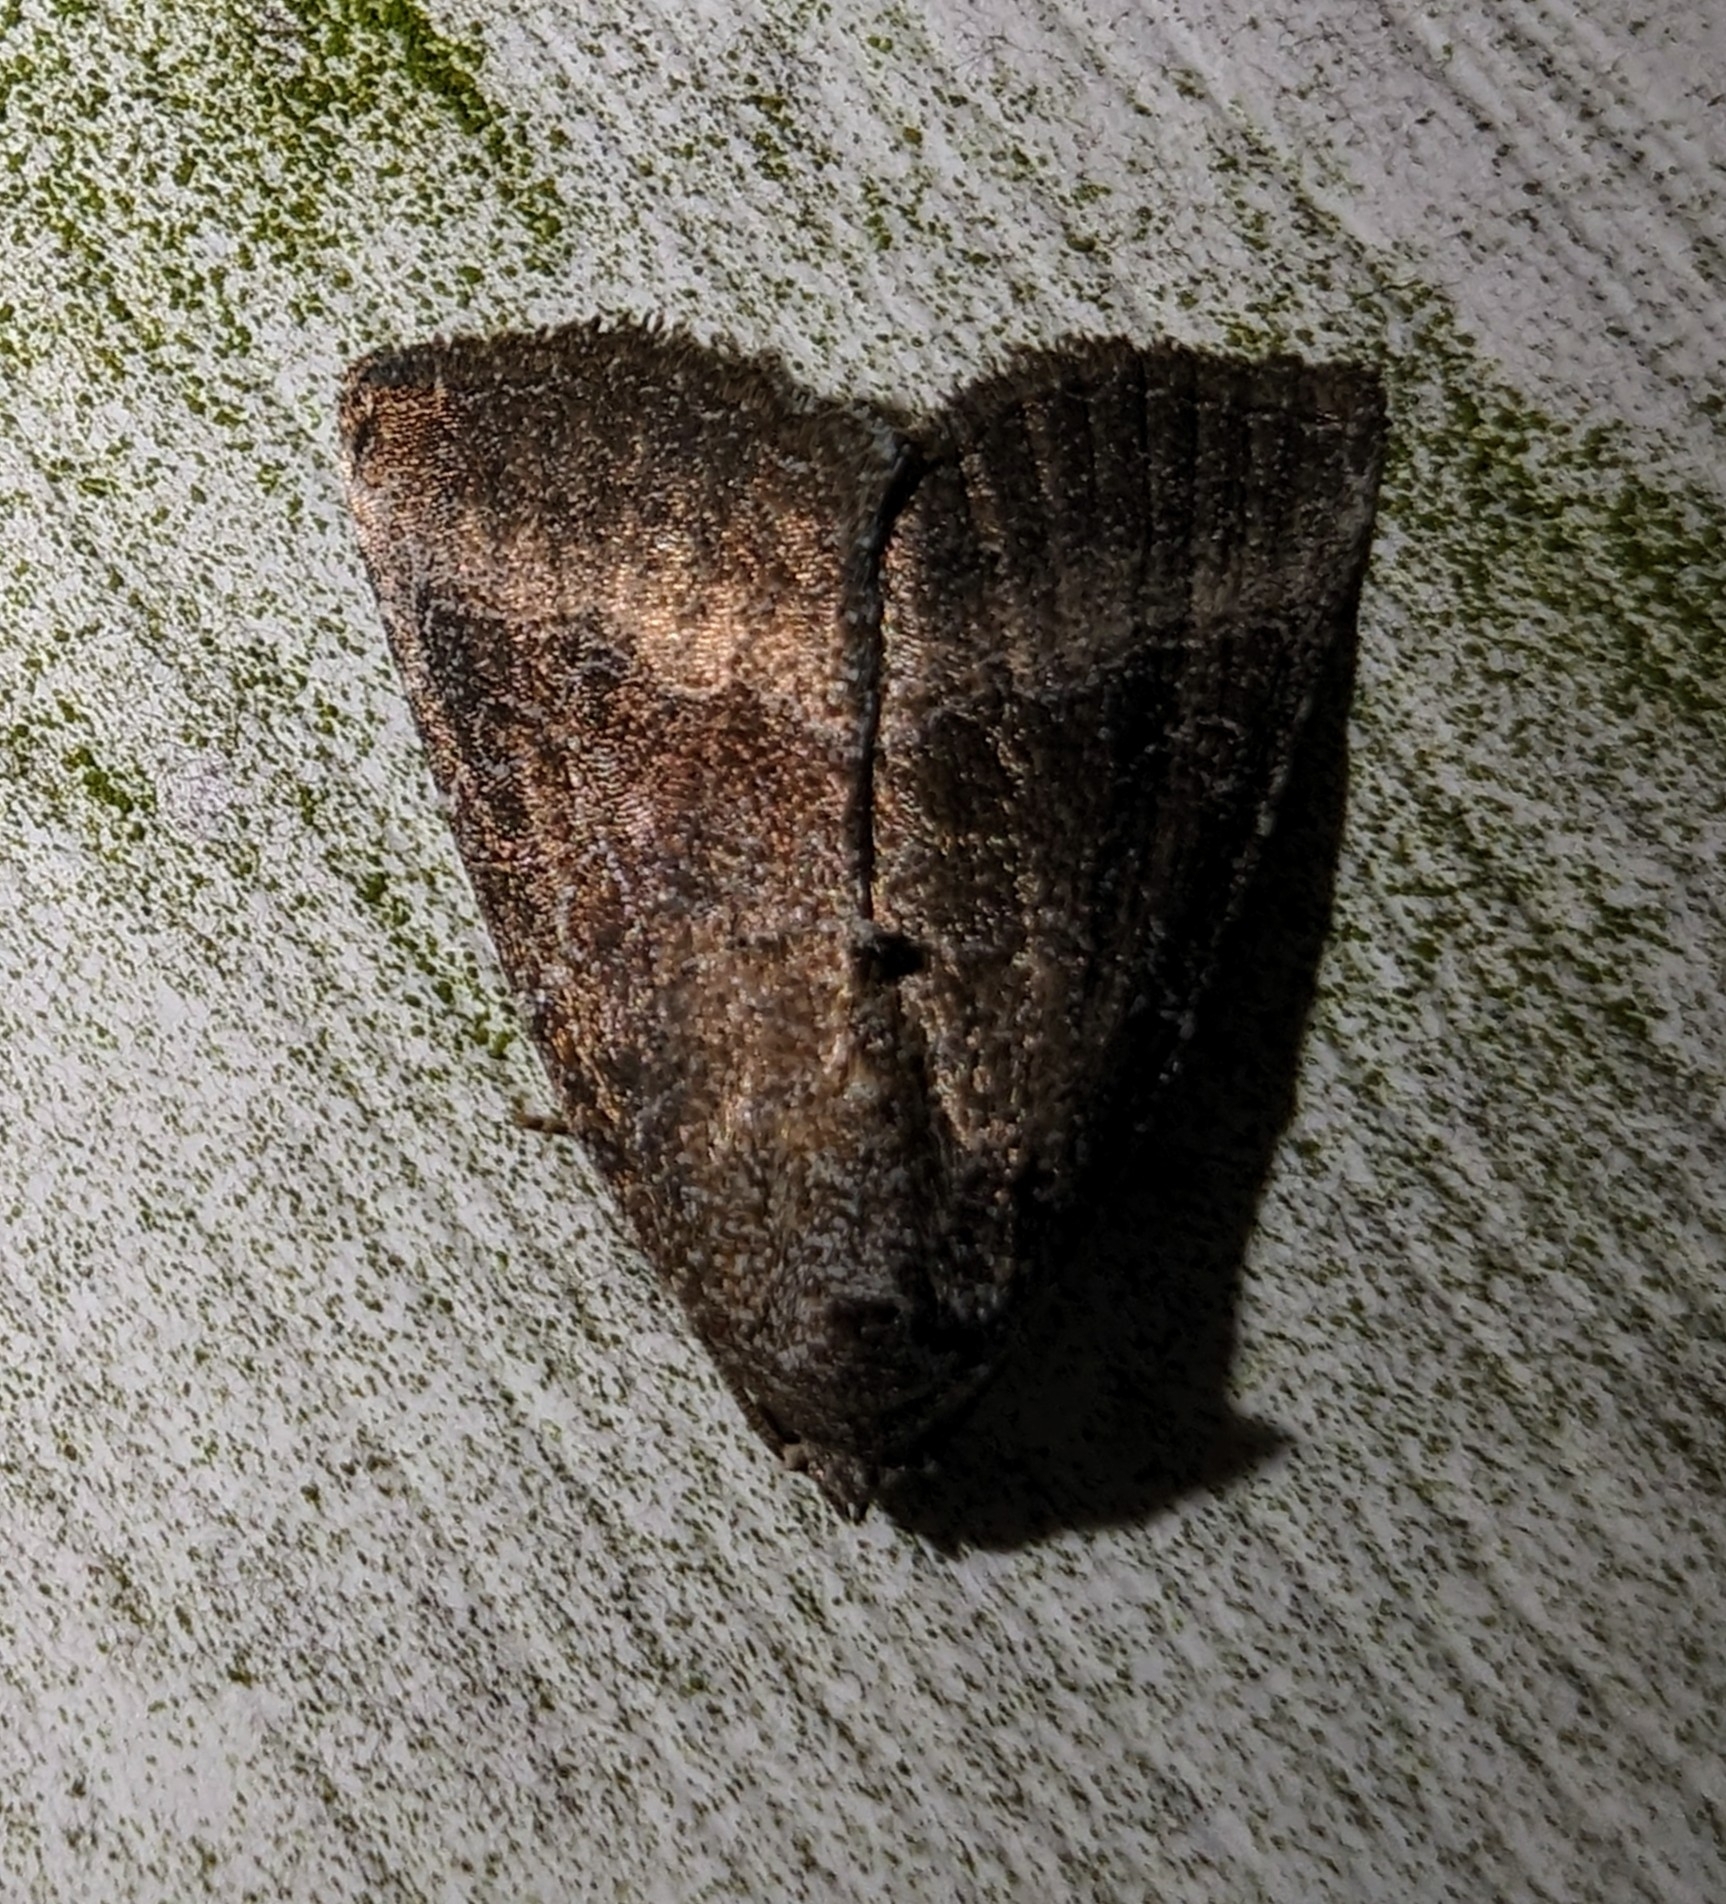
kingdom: Animalia
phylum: Arthropoda
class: Insecta
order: Lepidoptera
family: Noctuidae
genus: Ogdoconta
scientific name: Ogdoconta cinereola
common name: Common pinkband
